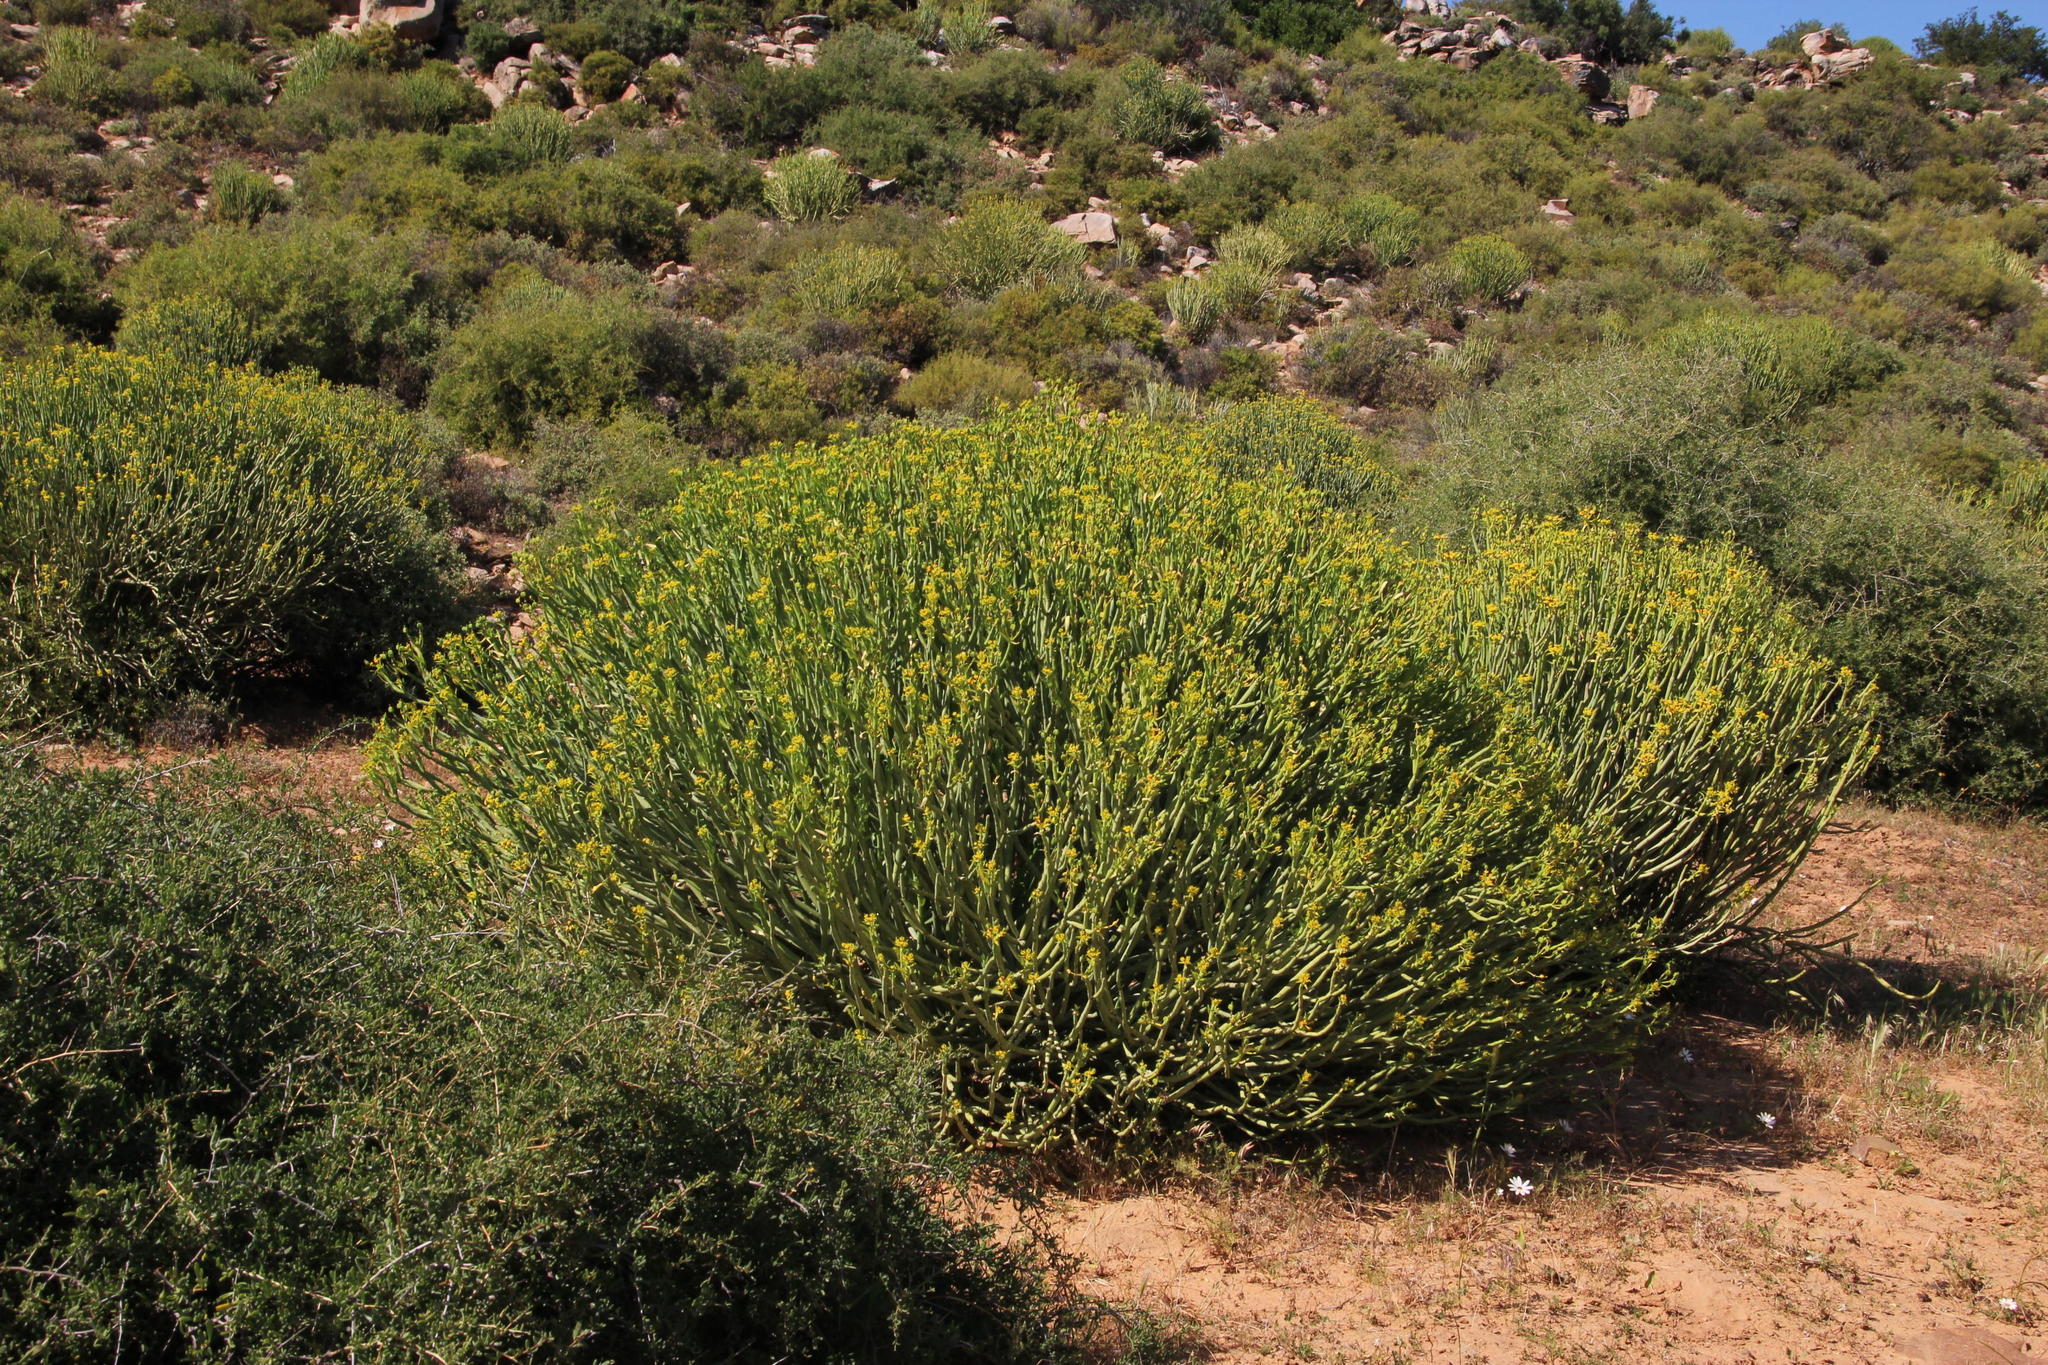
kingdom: Plantae
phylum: Tracheophyta
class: Magnoliopsida
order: Malpighiales
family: Euphorbiaceae
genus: Euphorbia
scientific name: Euphorbia mauritanica
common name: Jackal's-food
